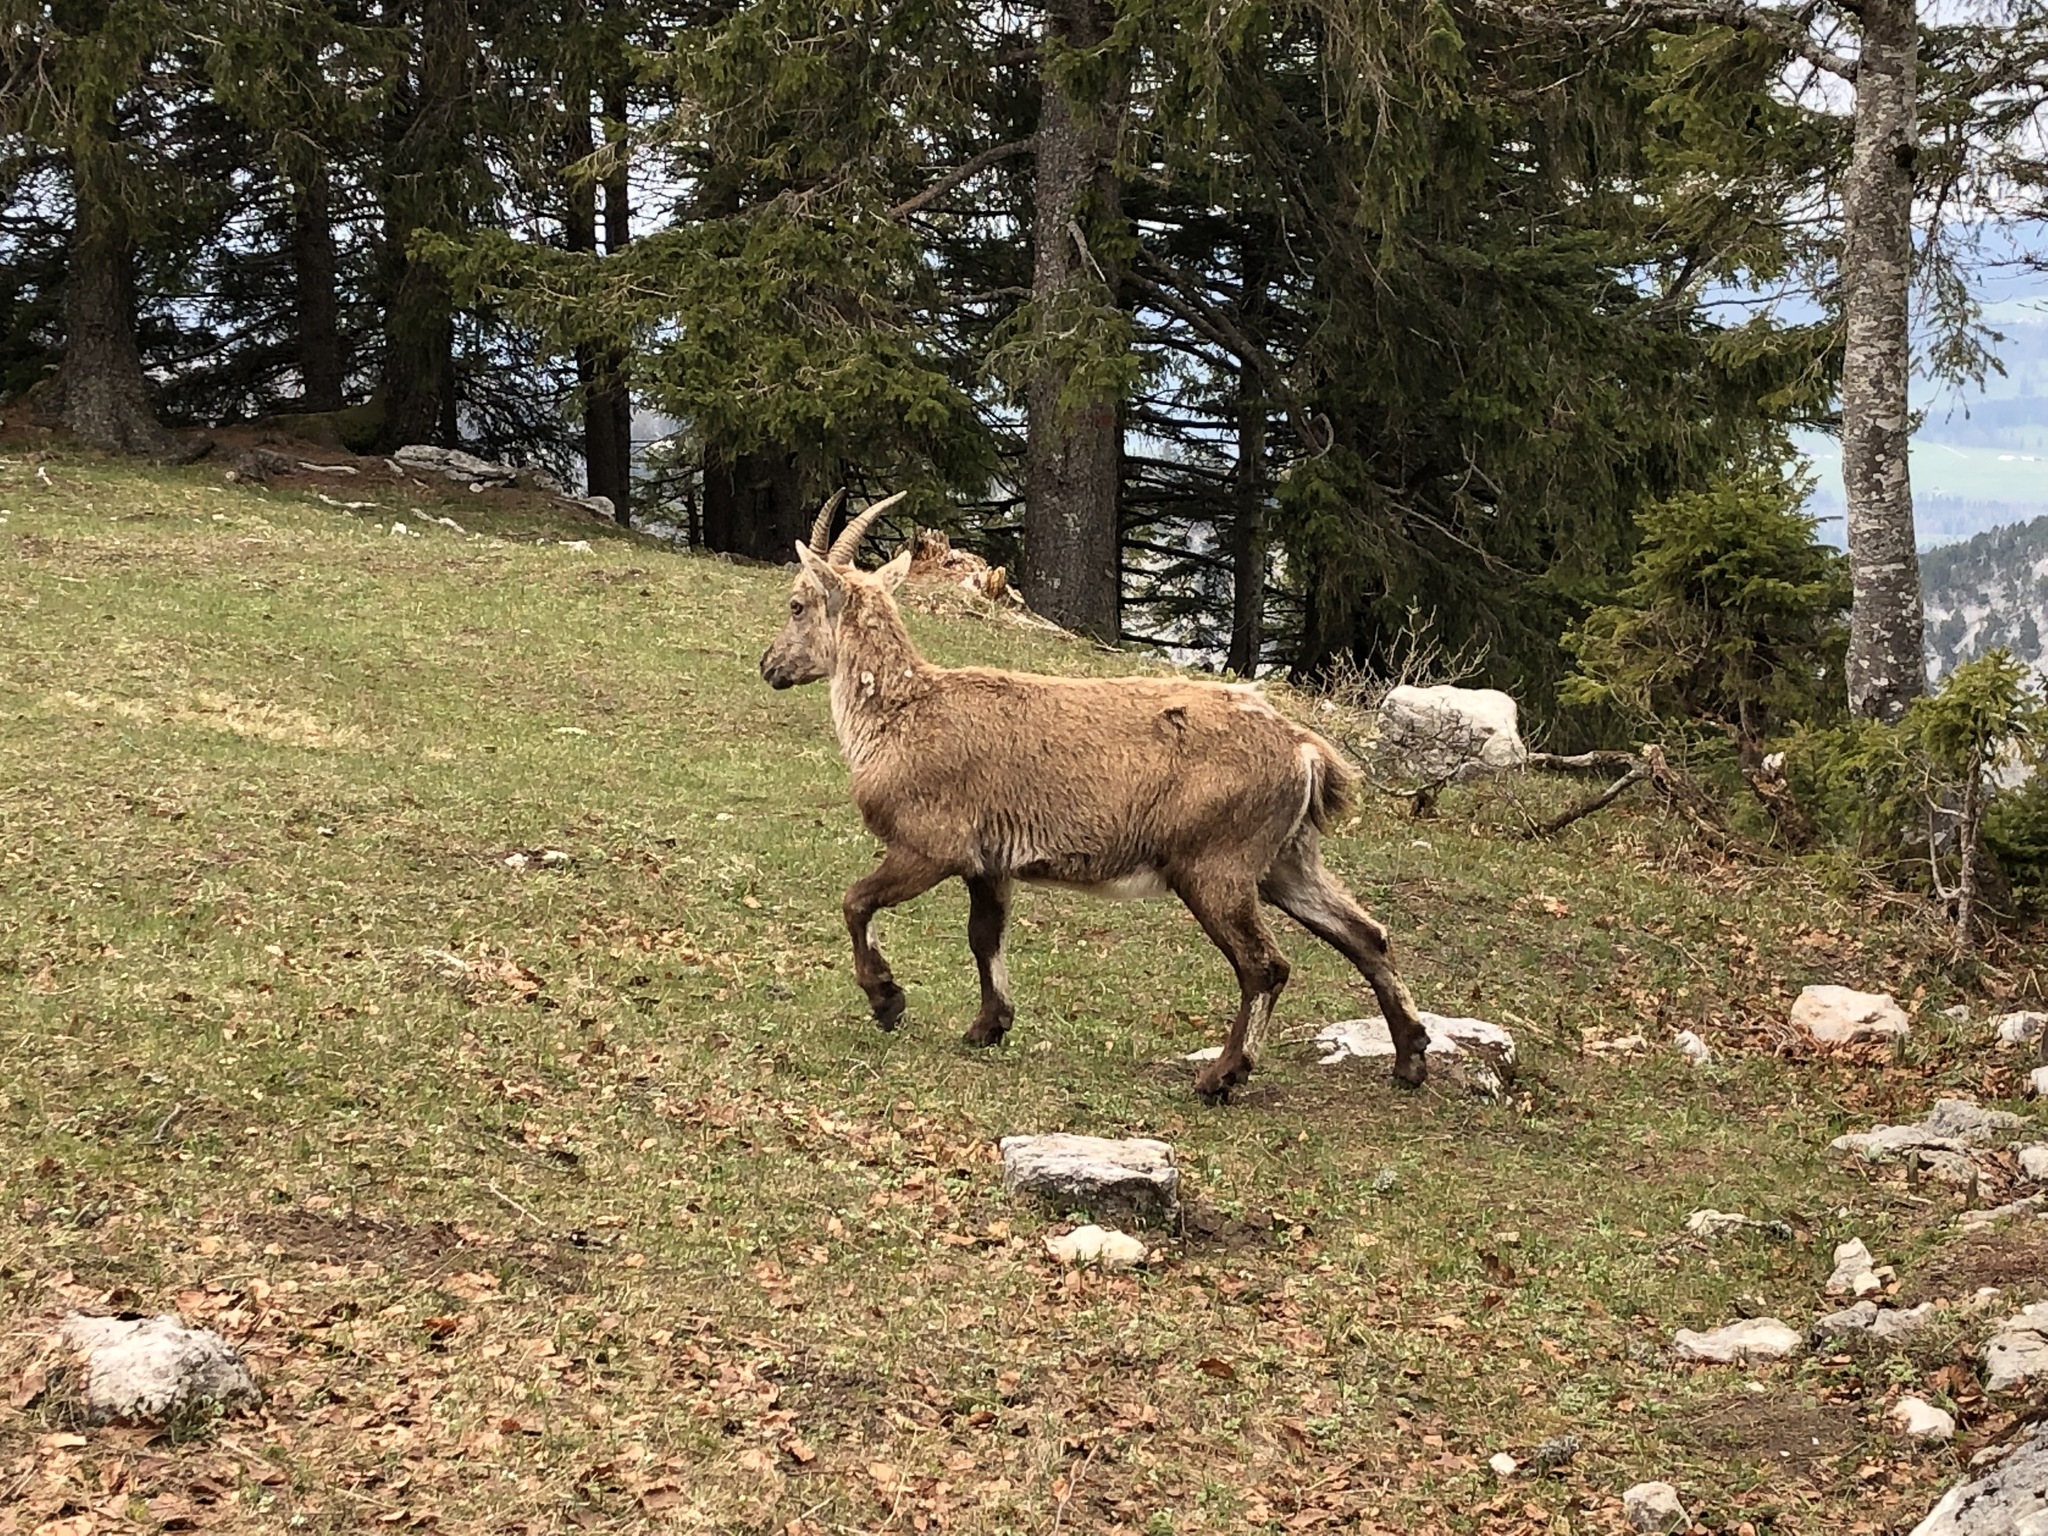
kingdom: Animalia
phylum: Chordata
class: Mammalia
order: Artiodactyla
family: Bovidae
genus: Capra
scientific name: Capra ibex
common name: Alpine ibex
